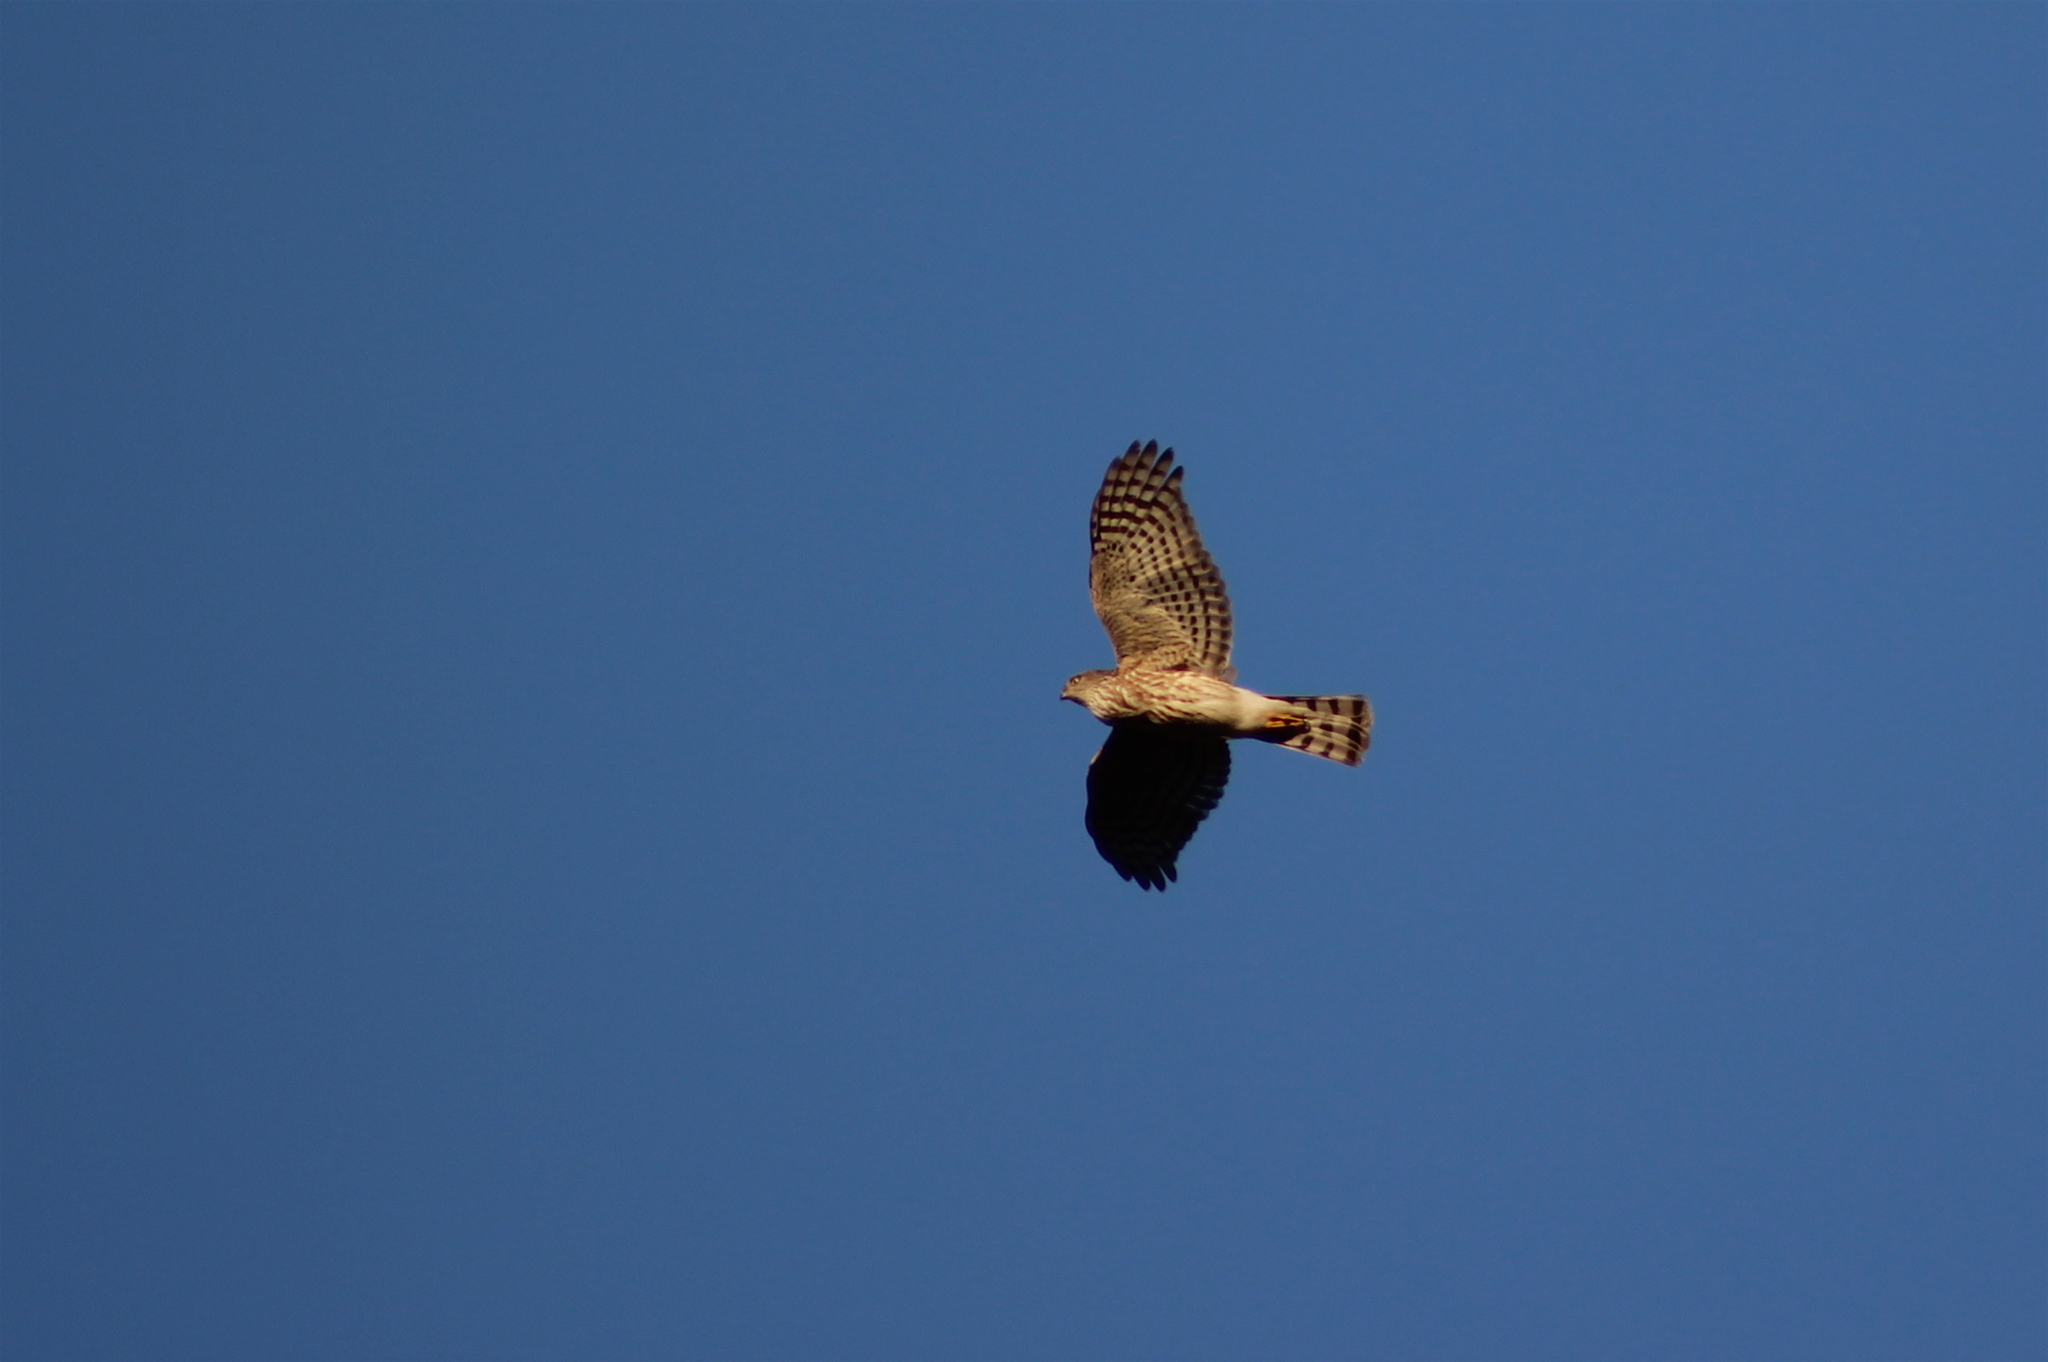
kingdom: Animalia
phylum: Chordata
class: Aves
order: Accipitriformes
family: Accipitridae
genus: Accipiter
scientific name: Accipiter striatus
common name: Sharp-shinned hawk
